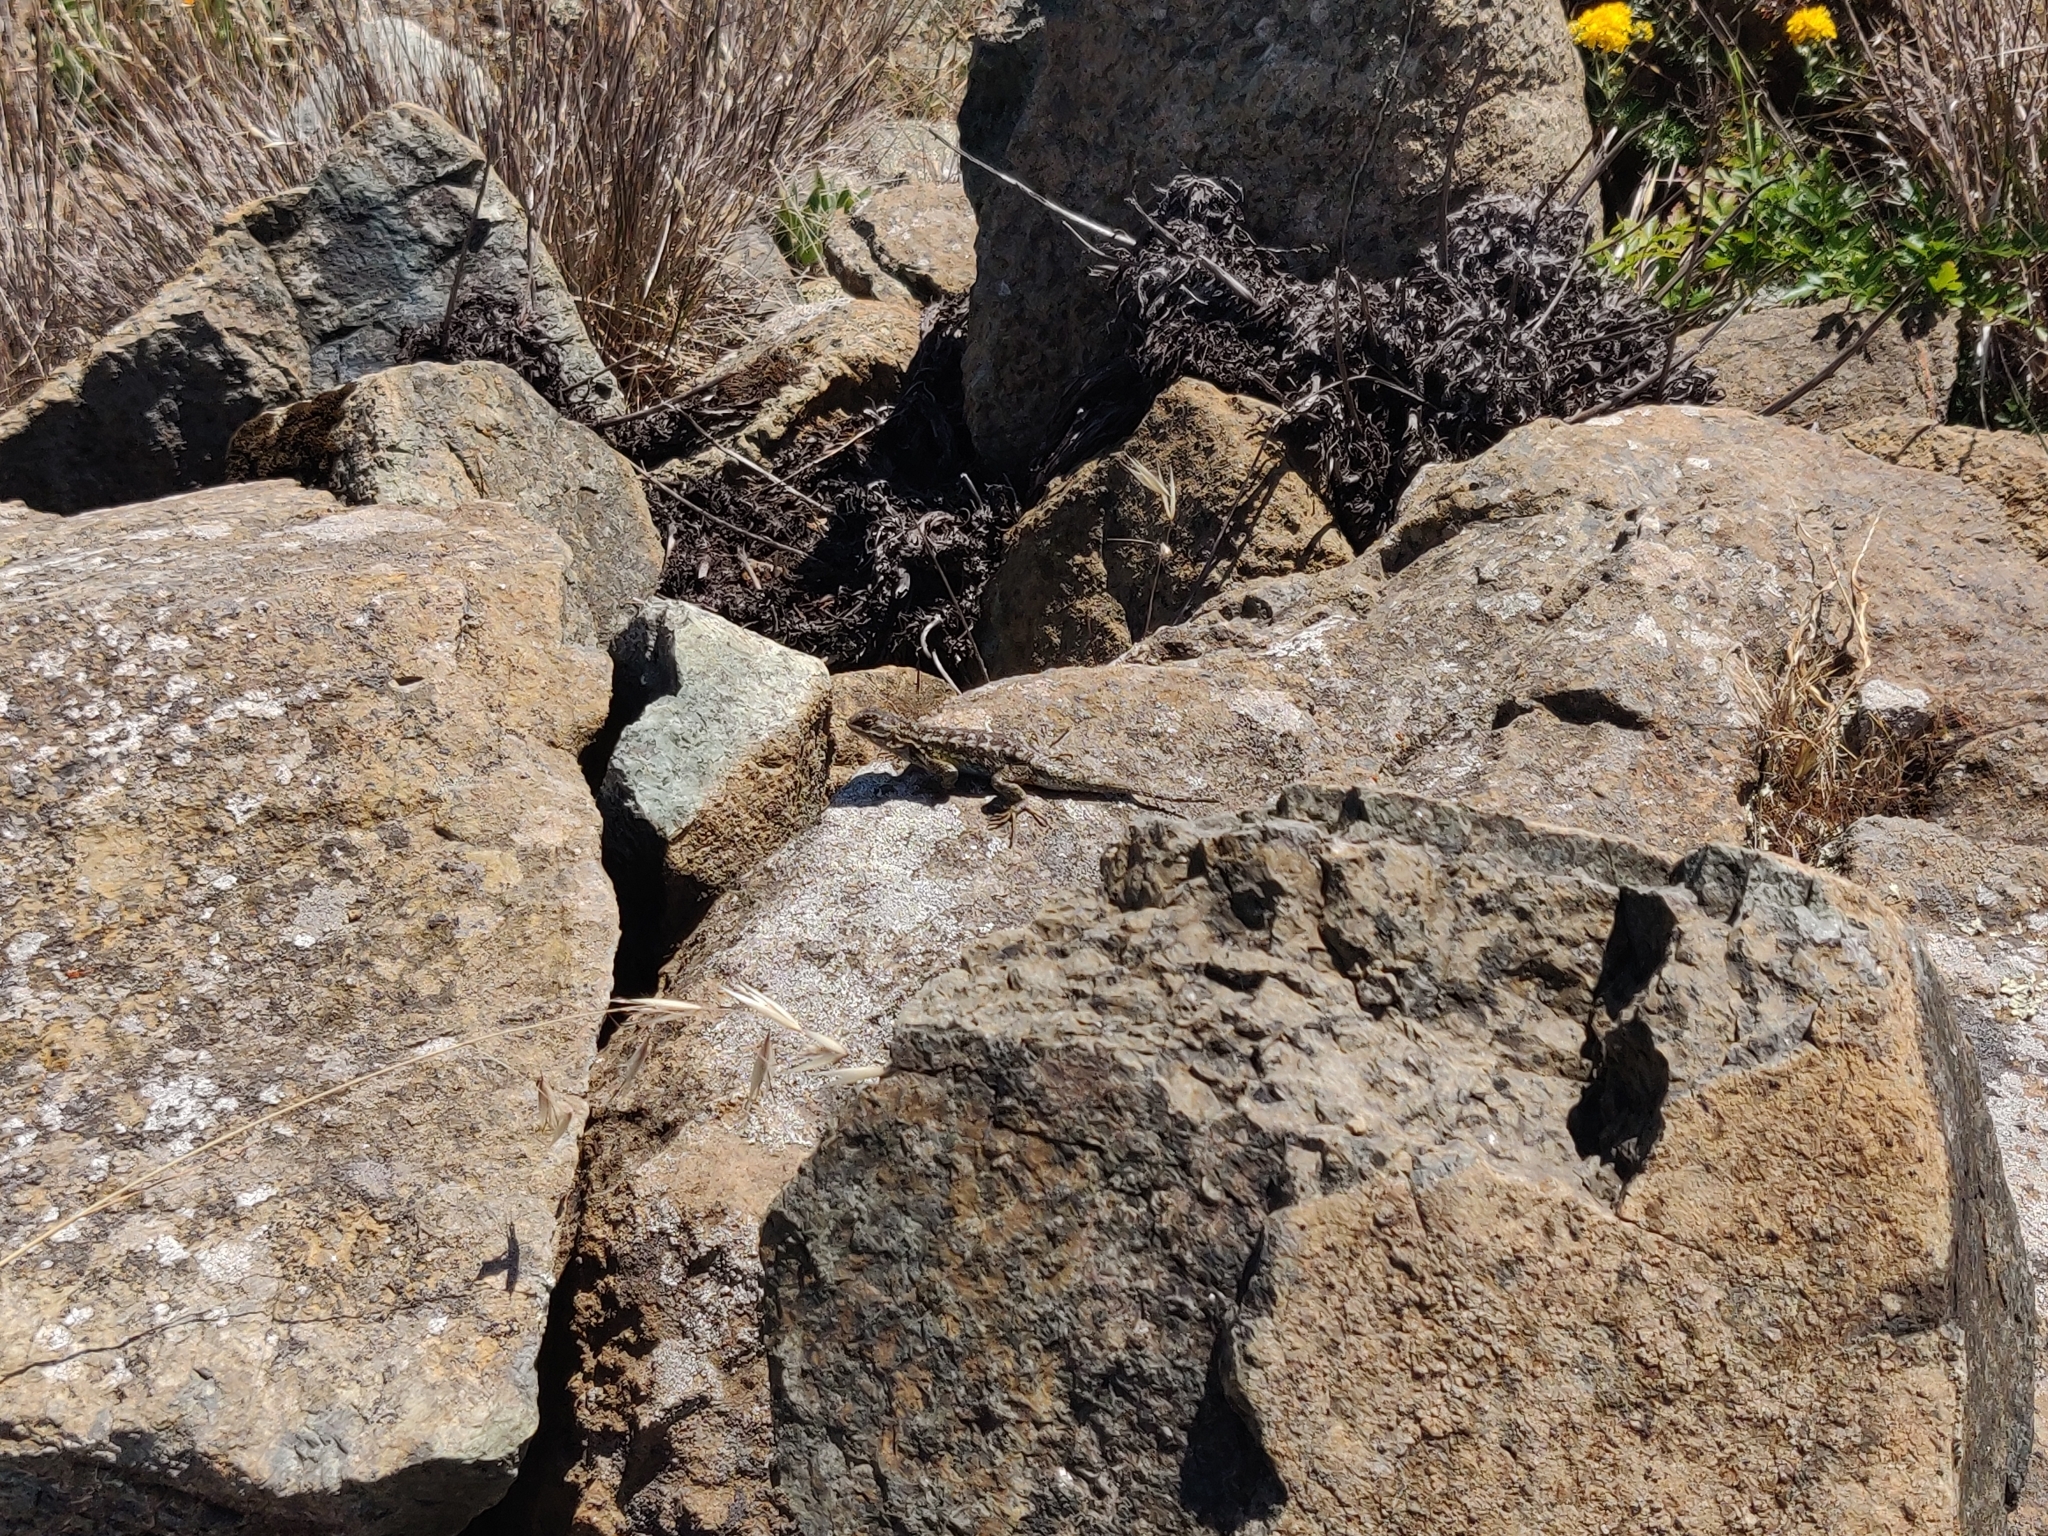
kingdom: Animalia
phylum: Chordata
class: Squamata
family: Phrynosomatidae
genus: Sceloporus
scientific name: Sceloporus occidentalis
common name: Western fence lizard
